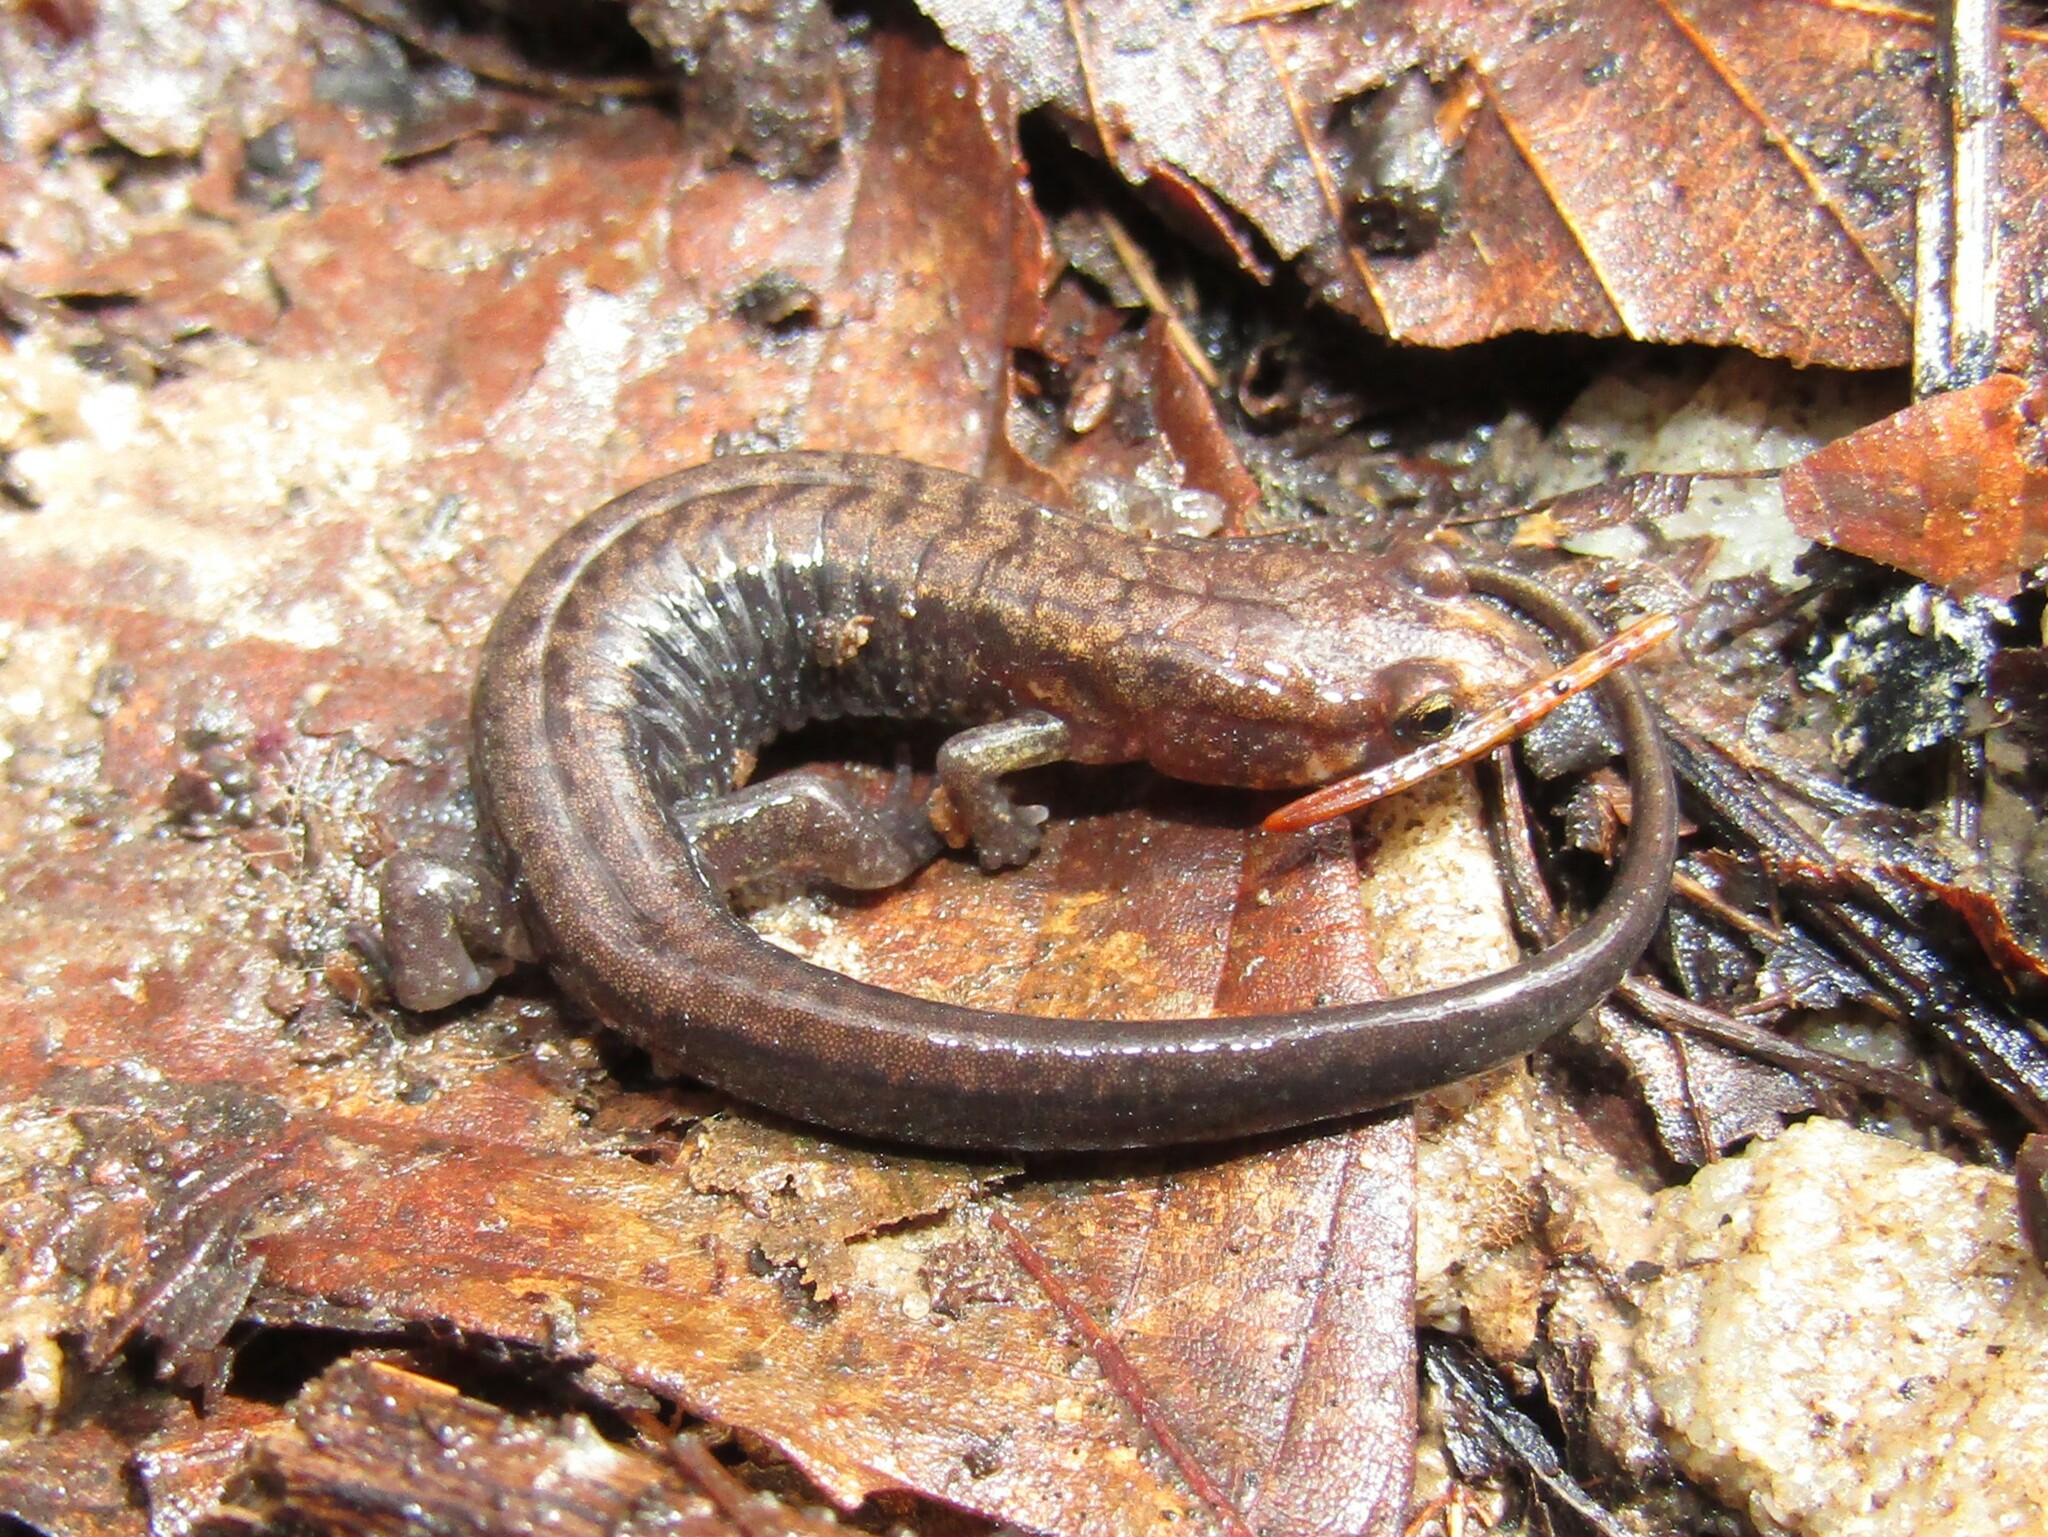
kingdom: Animalia
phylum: Chordata
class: Amphibia
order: Caudata
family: Plethodontidae
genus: Desmognathus
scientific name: Desmognathus ochrophaeus
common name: Allegheny mountain dusky salamander
